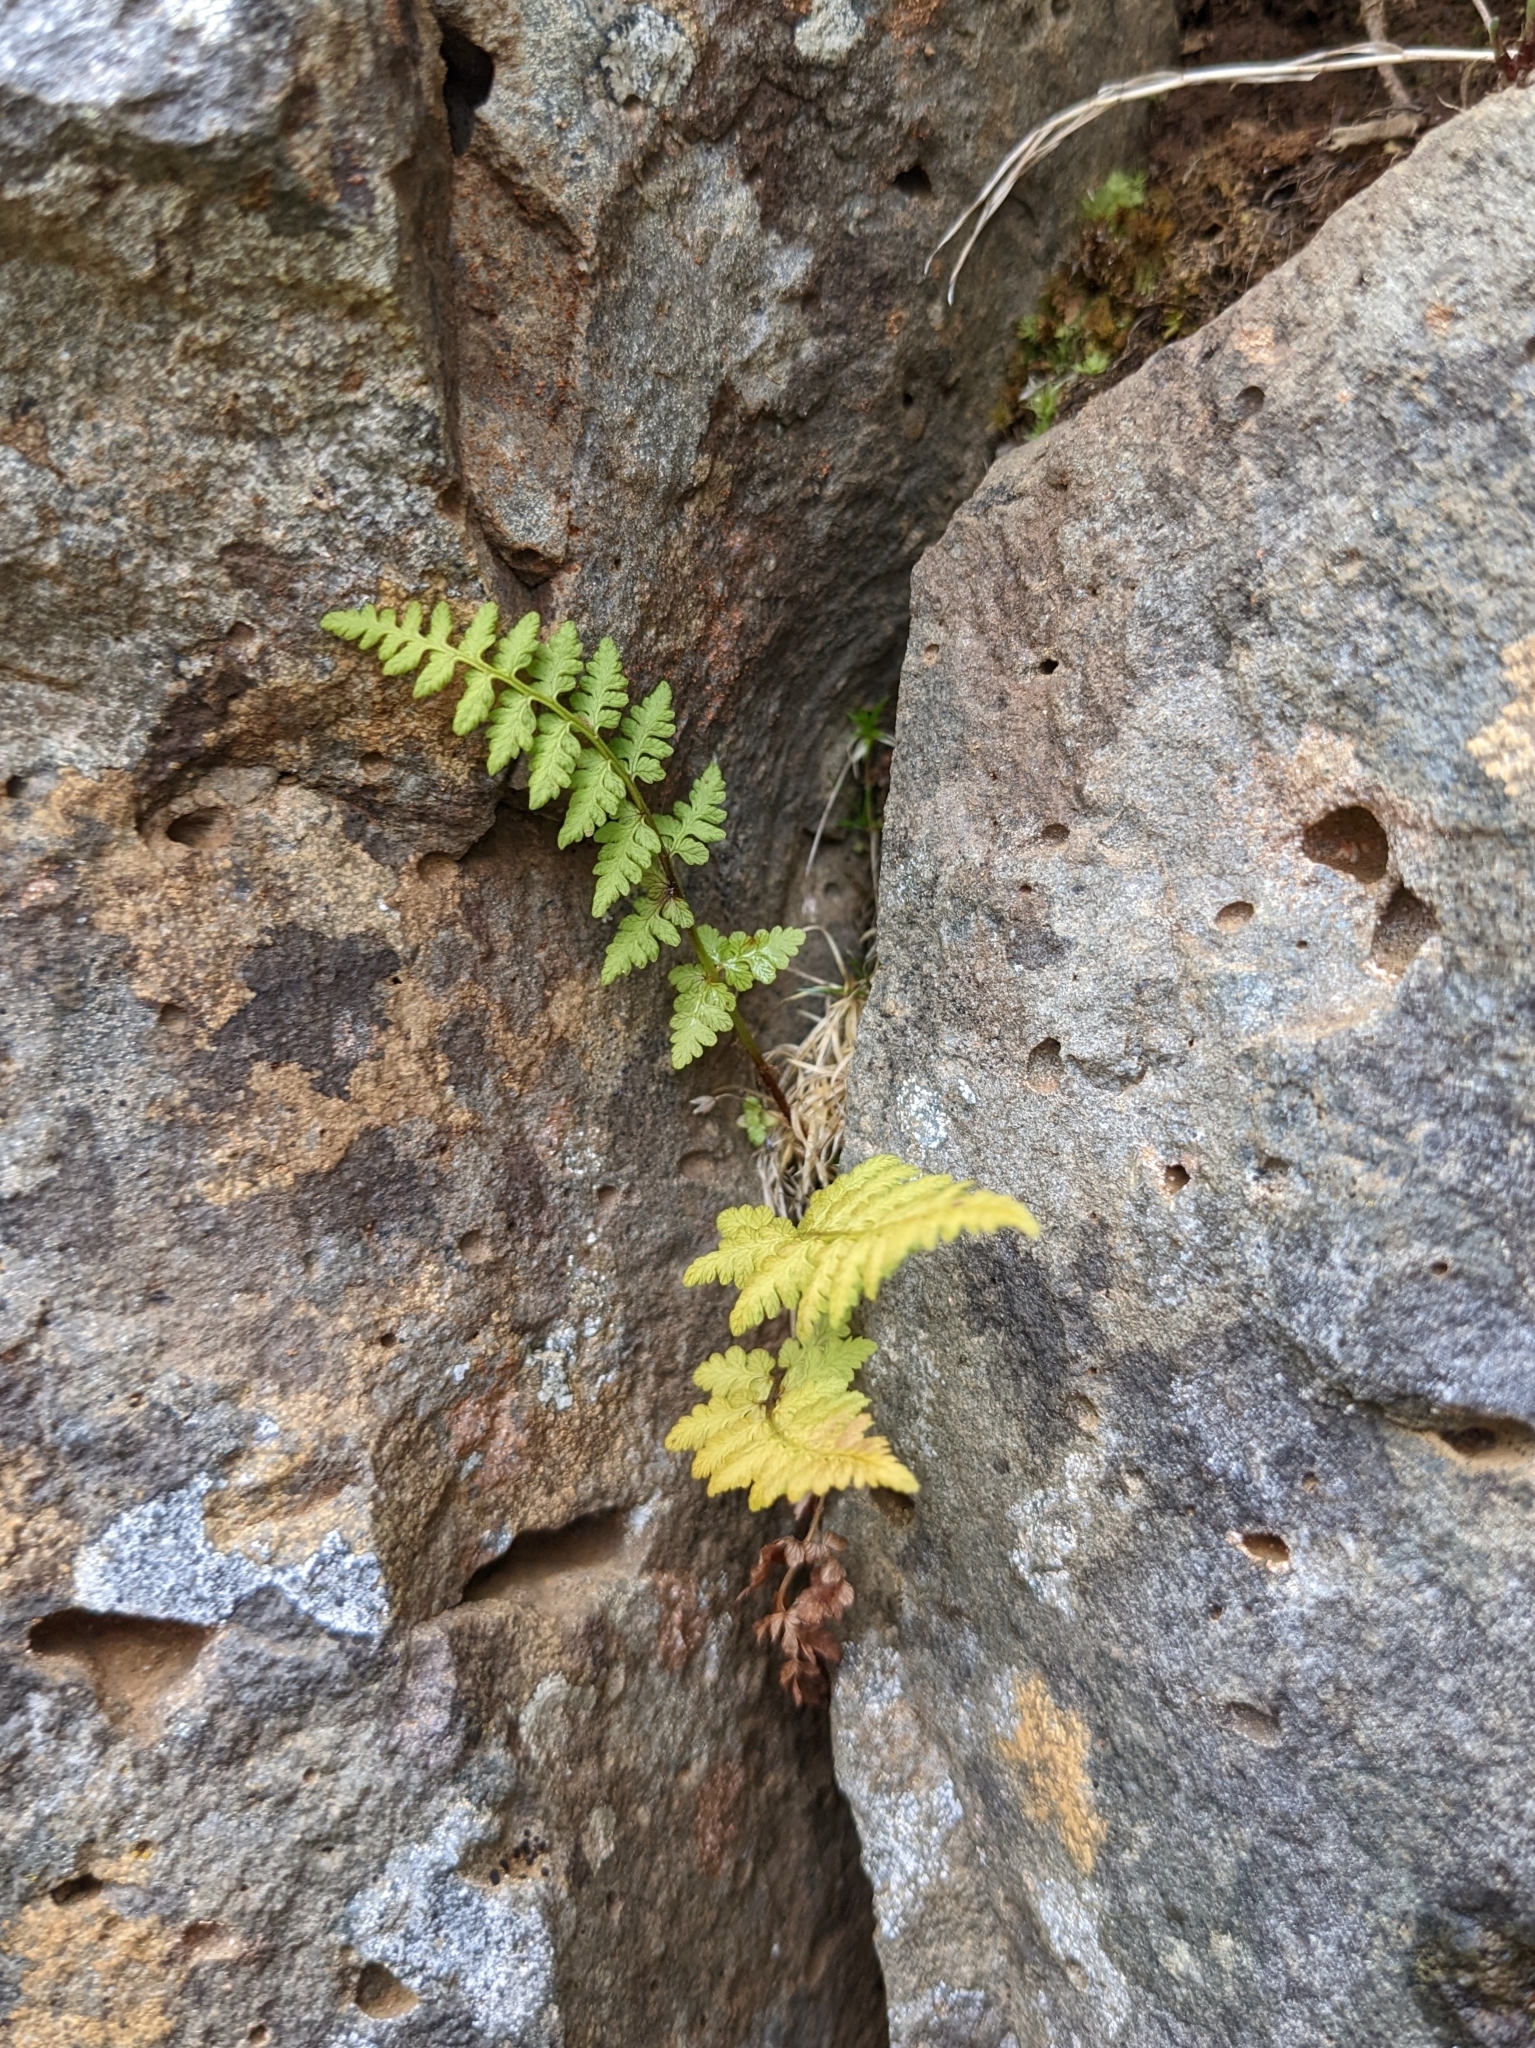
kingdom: Plantae
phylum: Tracheophyta
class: Polypodiopsida
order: Polypodiales
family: Cystopteridaceae
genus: Cystopteris
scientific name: Cystopteris fragilis
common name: Brittle bladder fern
